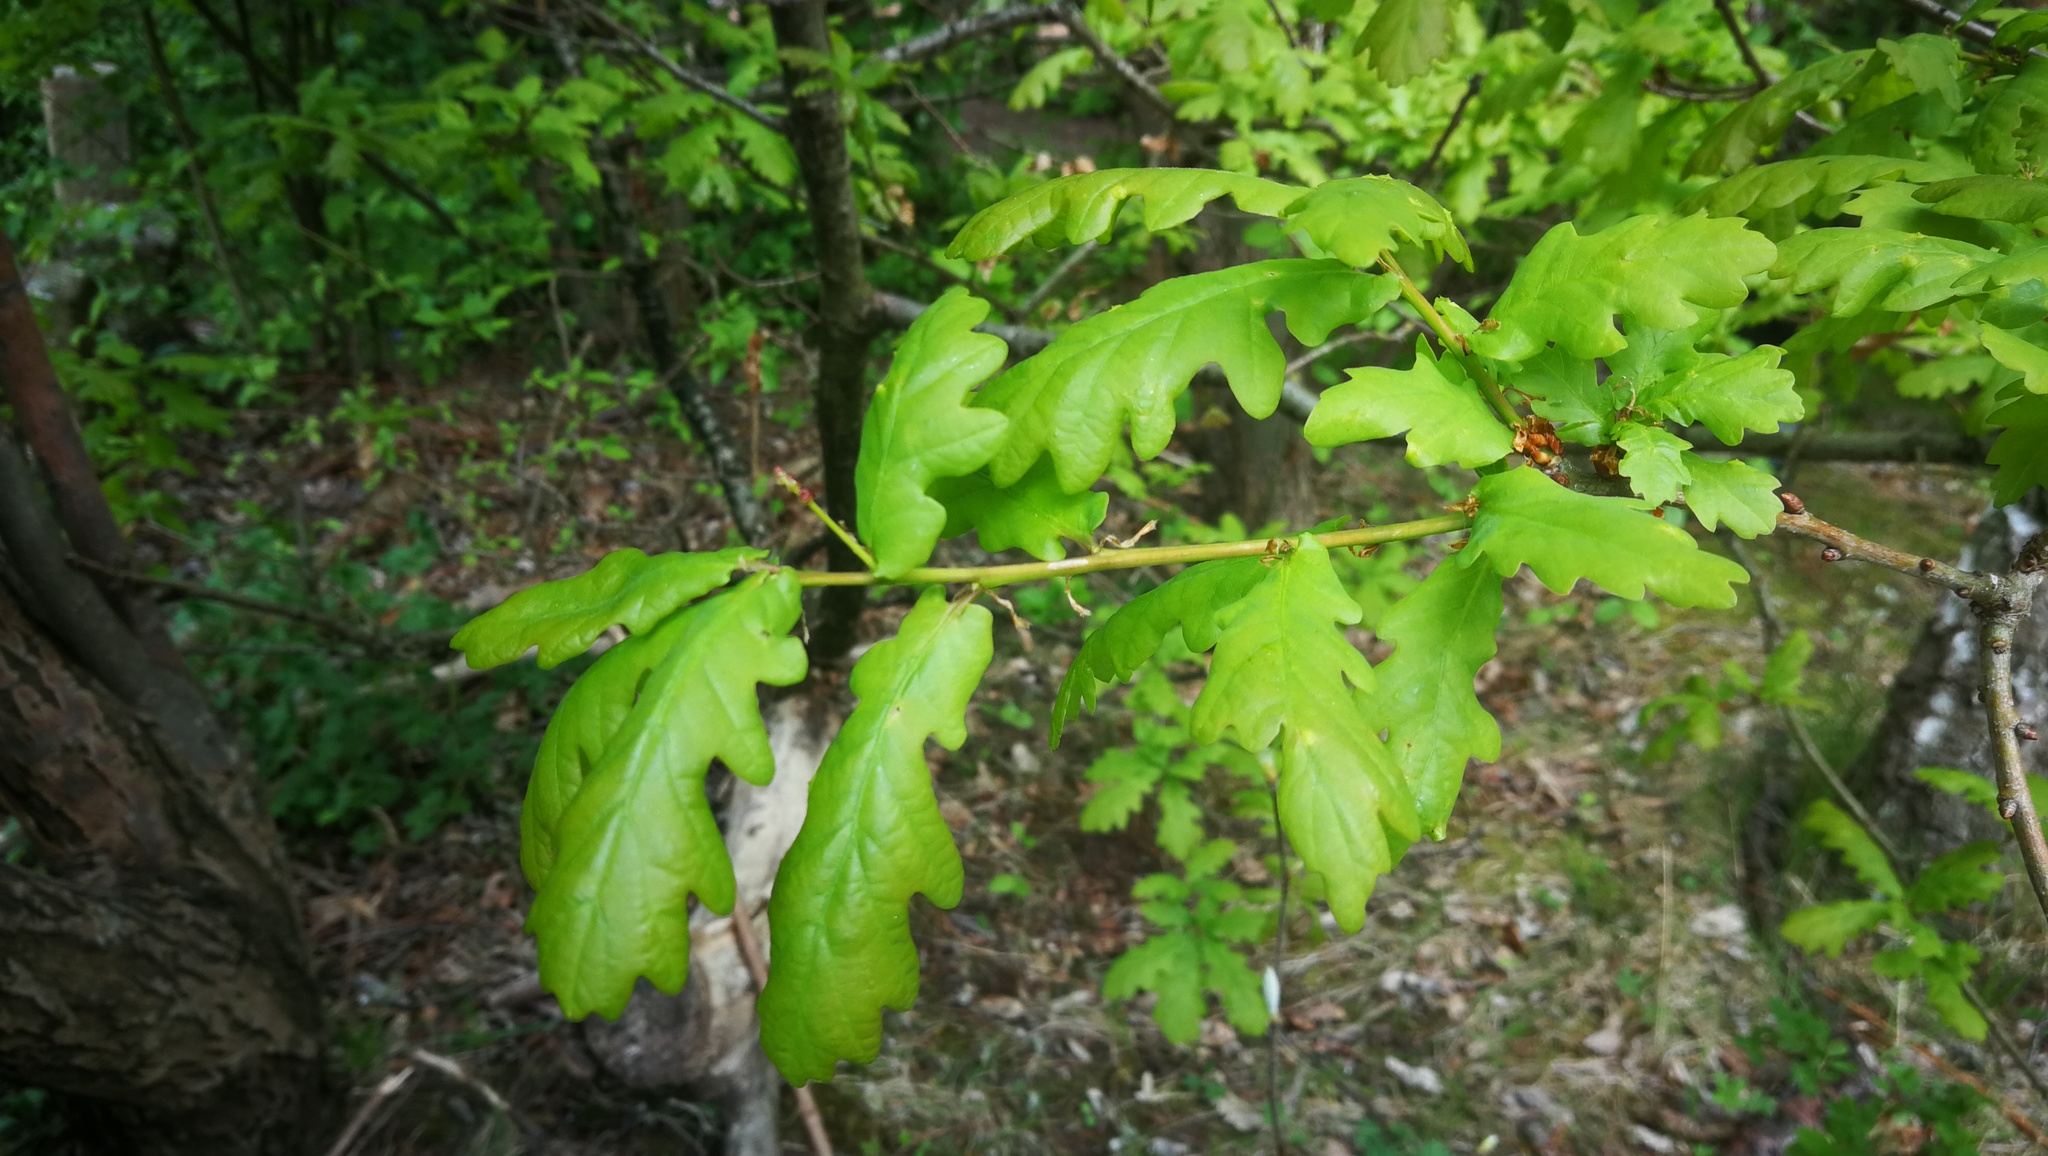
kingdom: Plantae
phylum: Tracheophyta
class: Magnoliopsida
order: Fagales
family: Fagaceae
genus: Quercus
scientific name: Quercus robur
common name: Pedunculate oak
